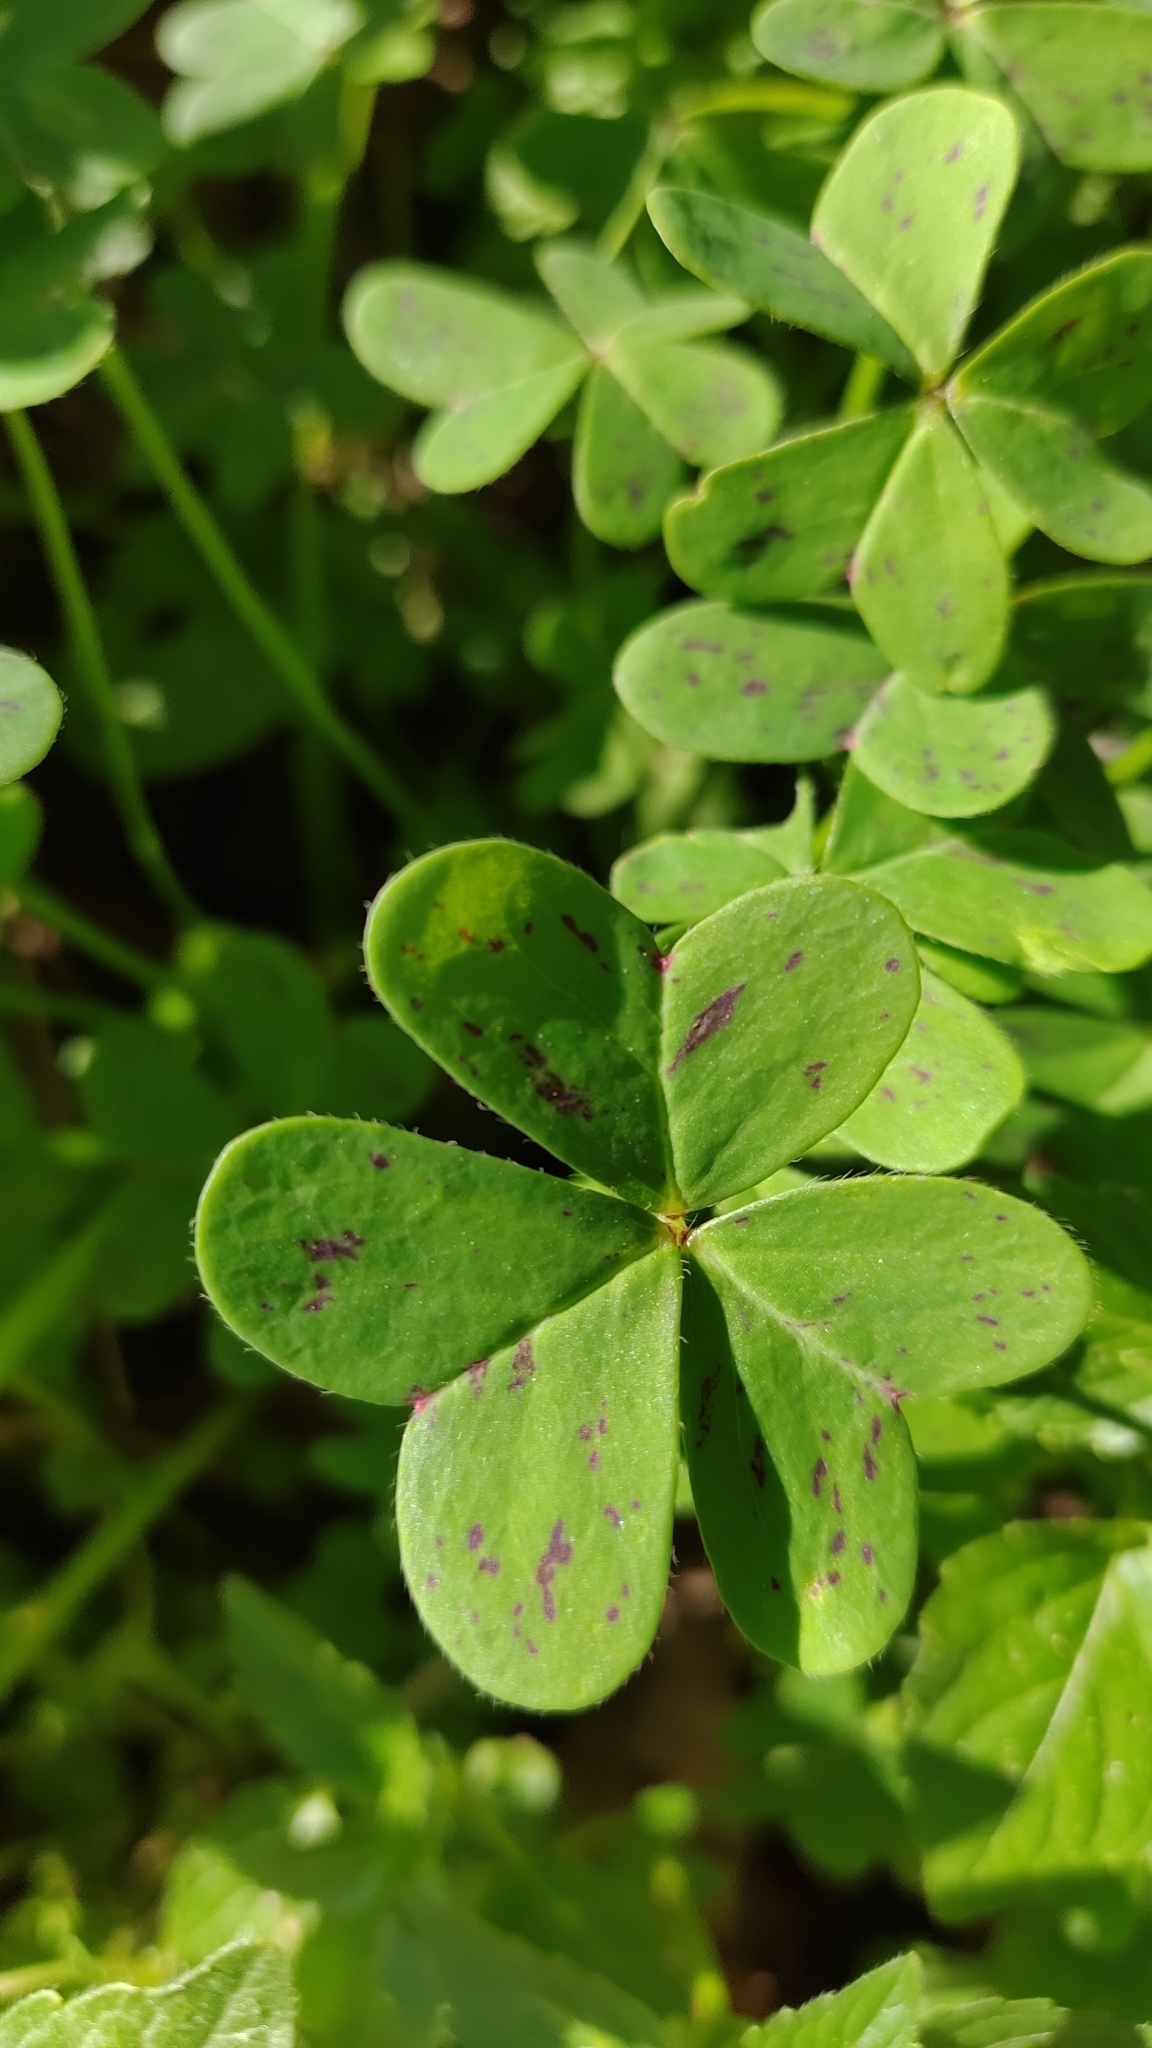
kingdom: Plantae
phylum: Tracheophyta
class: Magnoliopsida
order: Oxalidales
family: Oxalidaceae
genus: Oxalis
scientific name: Oxalis pes-caprae
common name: Bermuda-buttercup
